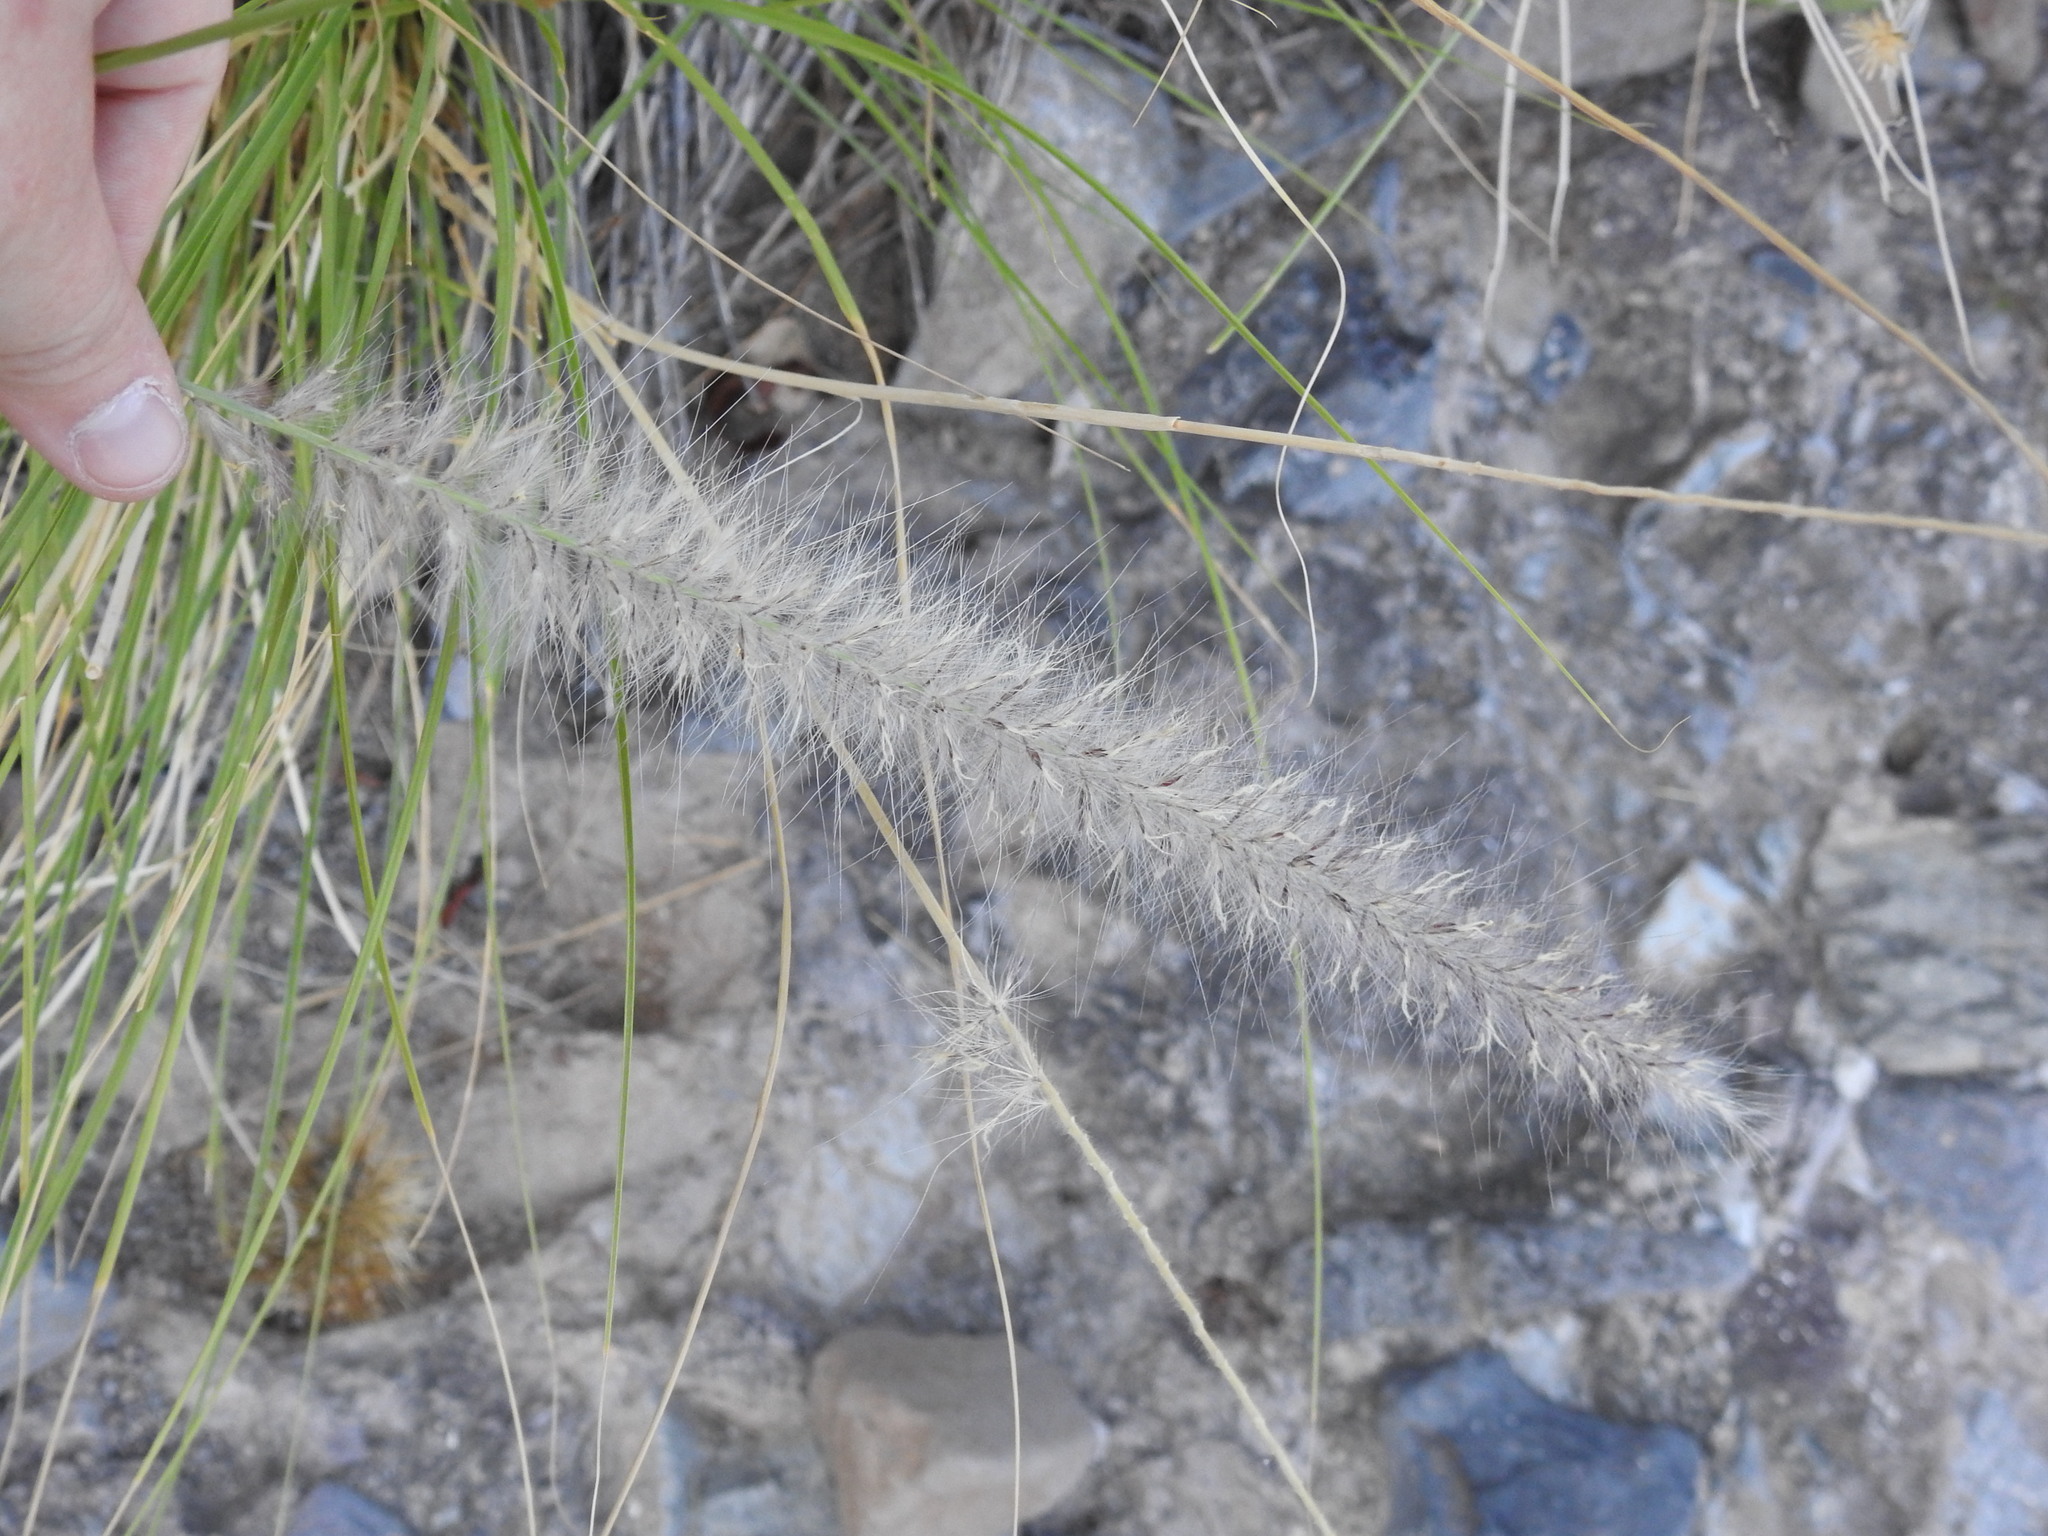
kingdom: Plantae
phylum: Tracheophyta
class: Liliopsida
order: Poales
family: Poaceae
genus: Cenchrus
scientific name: Cenchrus setaceus
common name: Crimson fountaingrass
